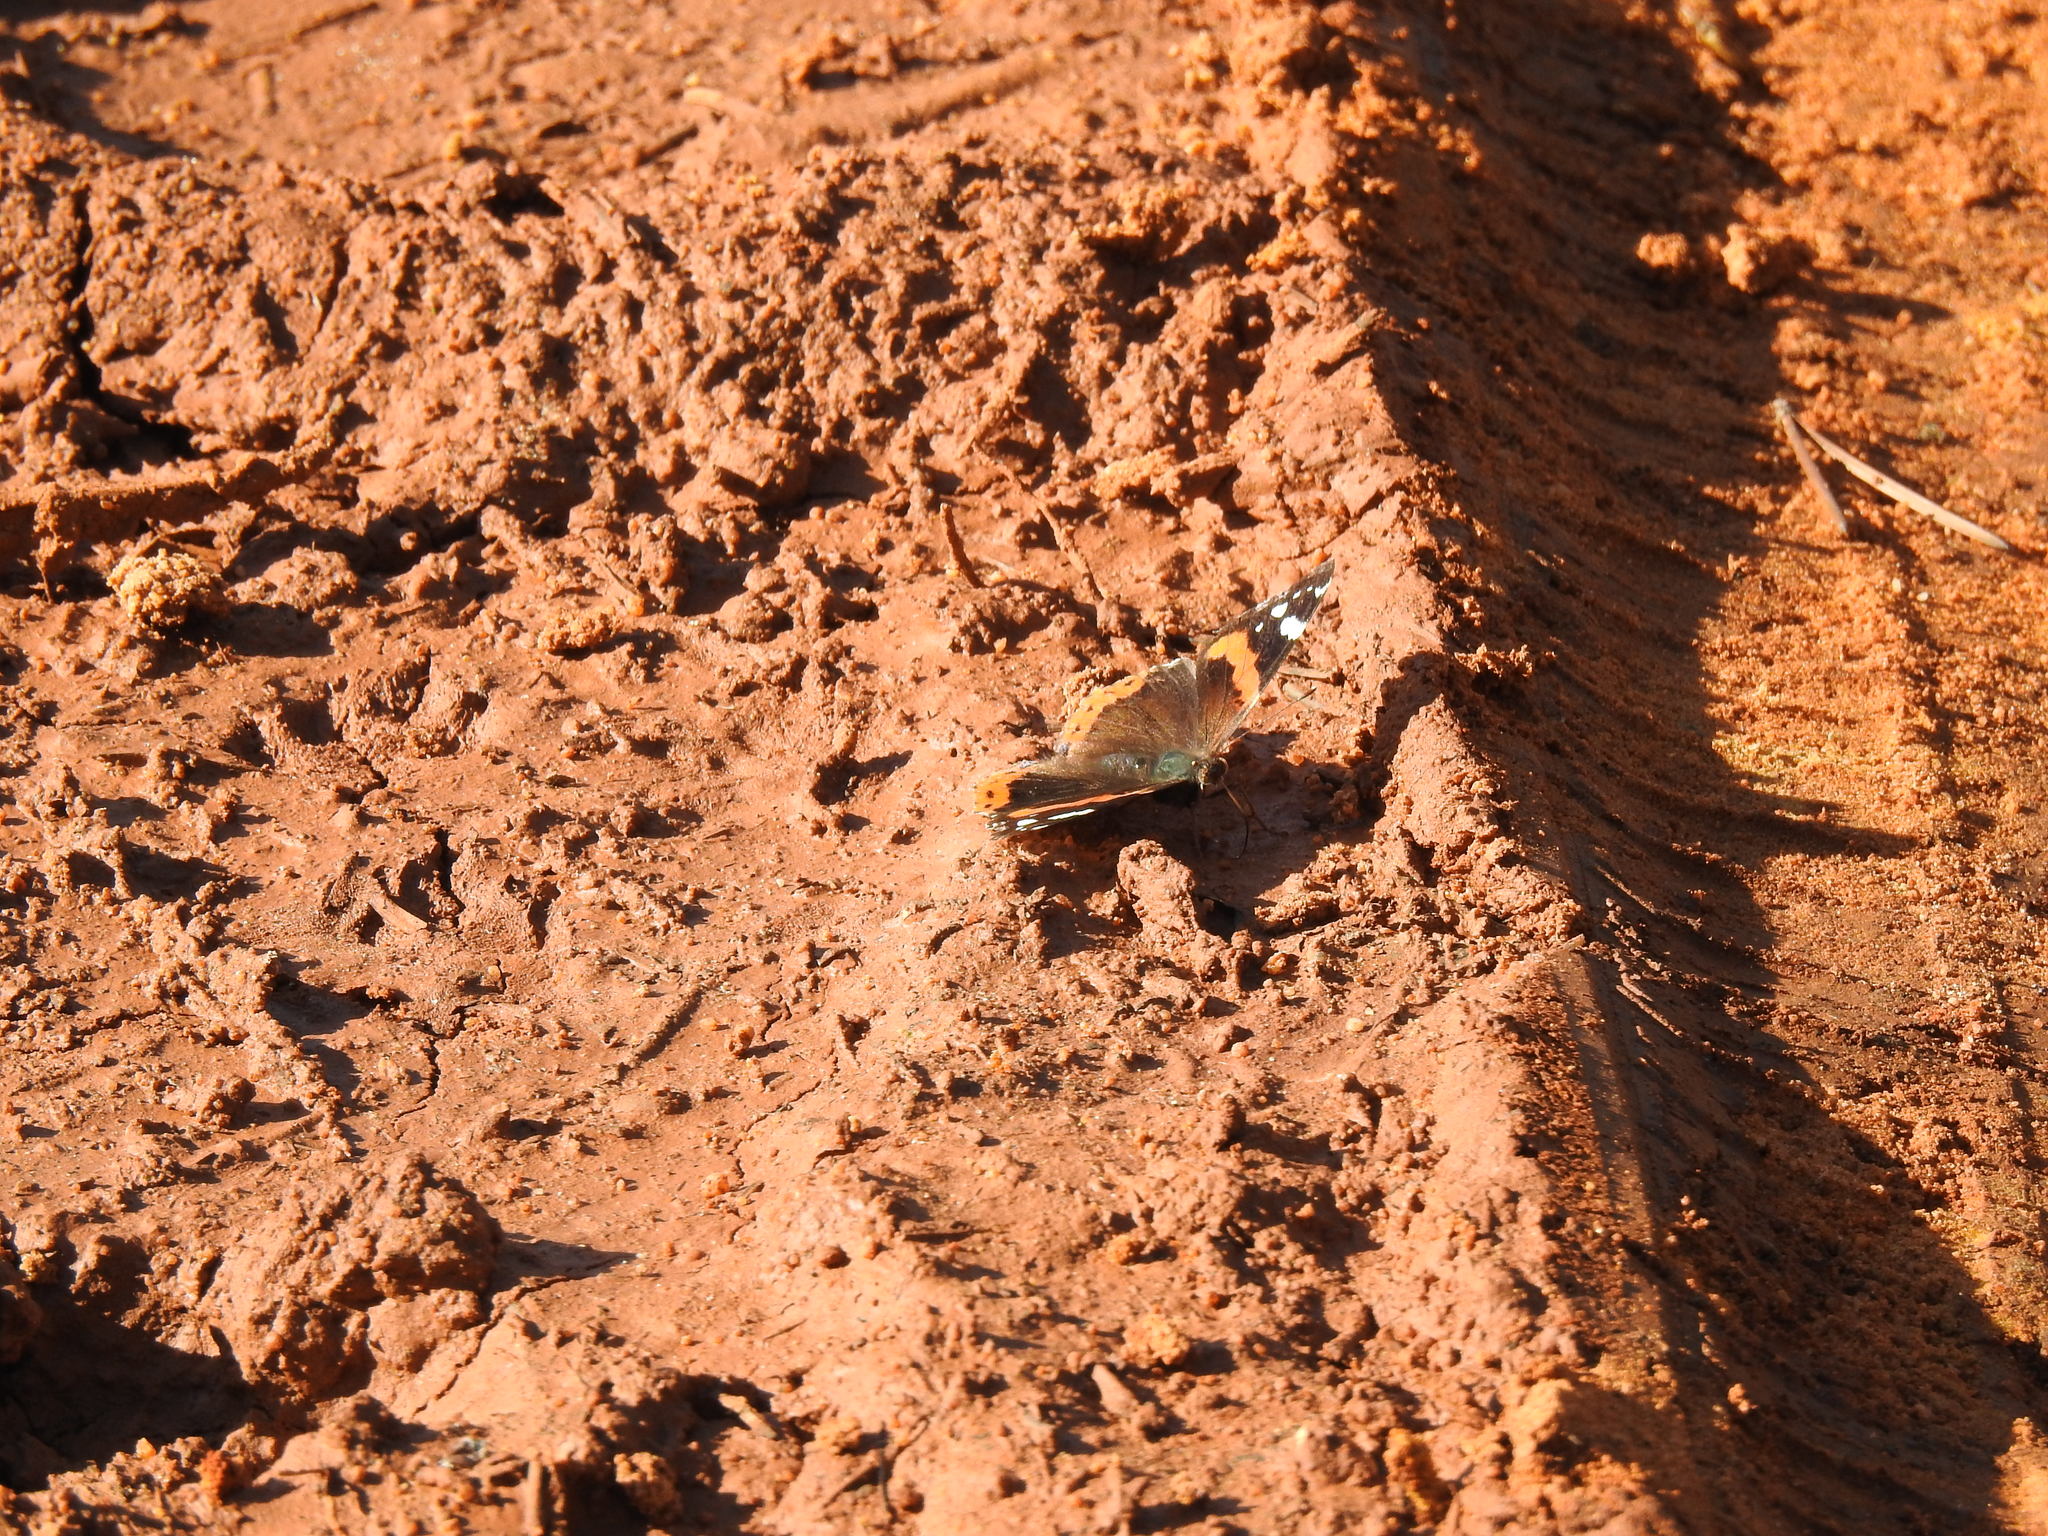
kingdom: Animalia
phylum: Arthropoda
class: Insecta
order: Lepidoptera
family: Nymphalidae
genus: Vanessa
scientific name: Vanessa atalanta
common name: Red admiral
